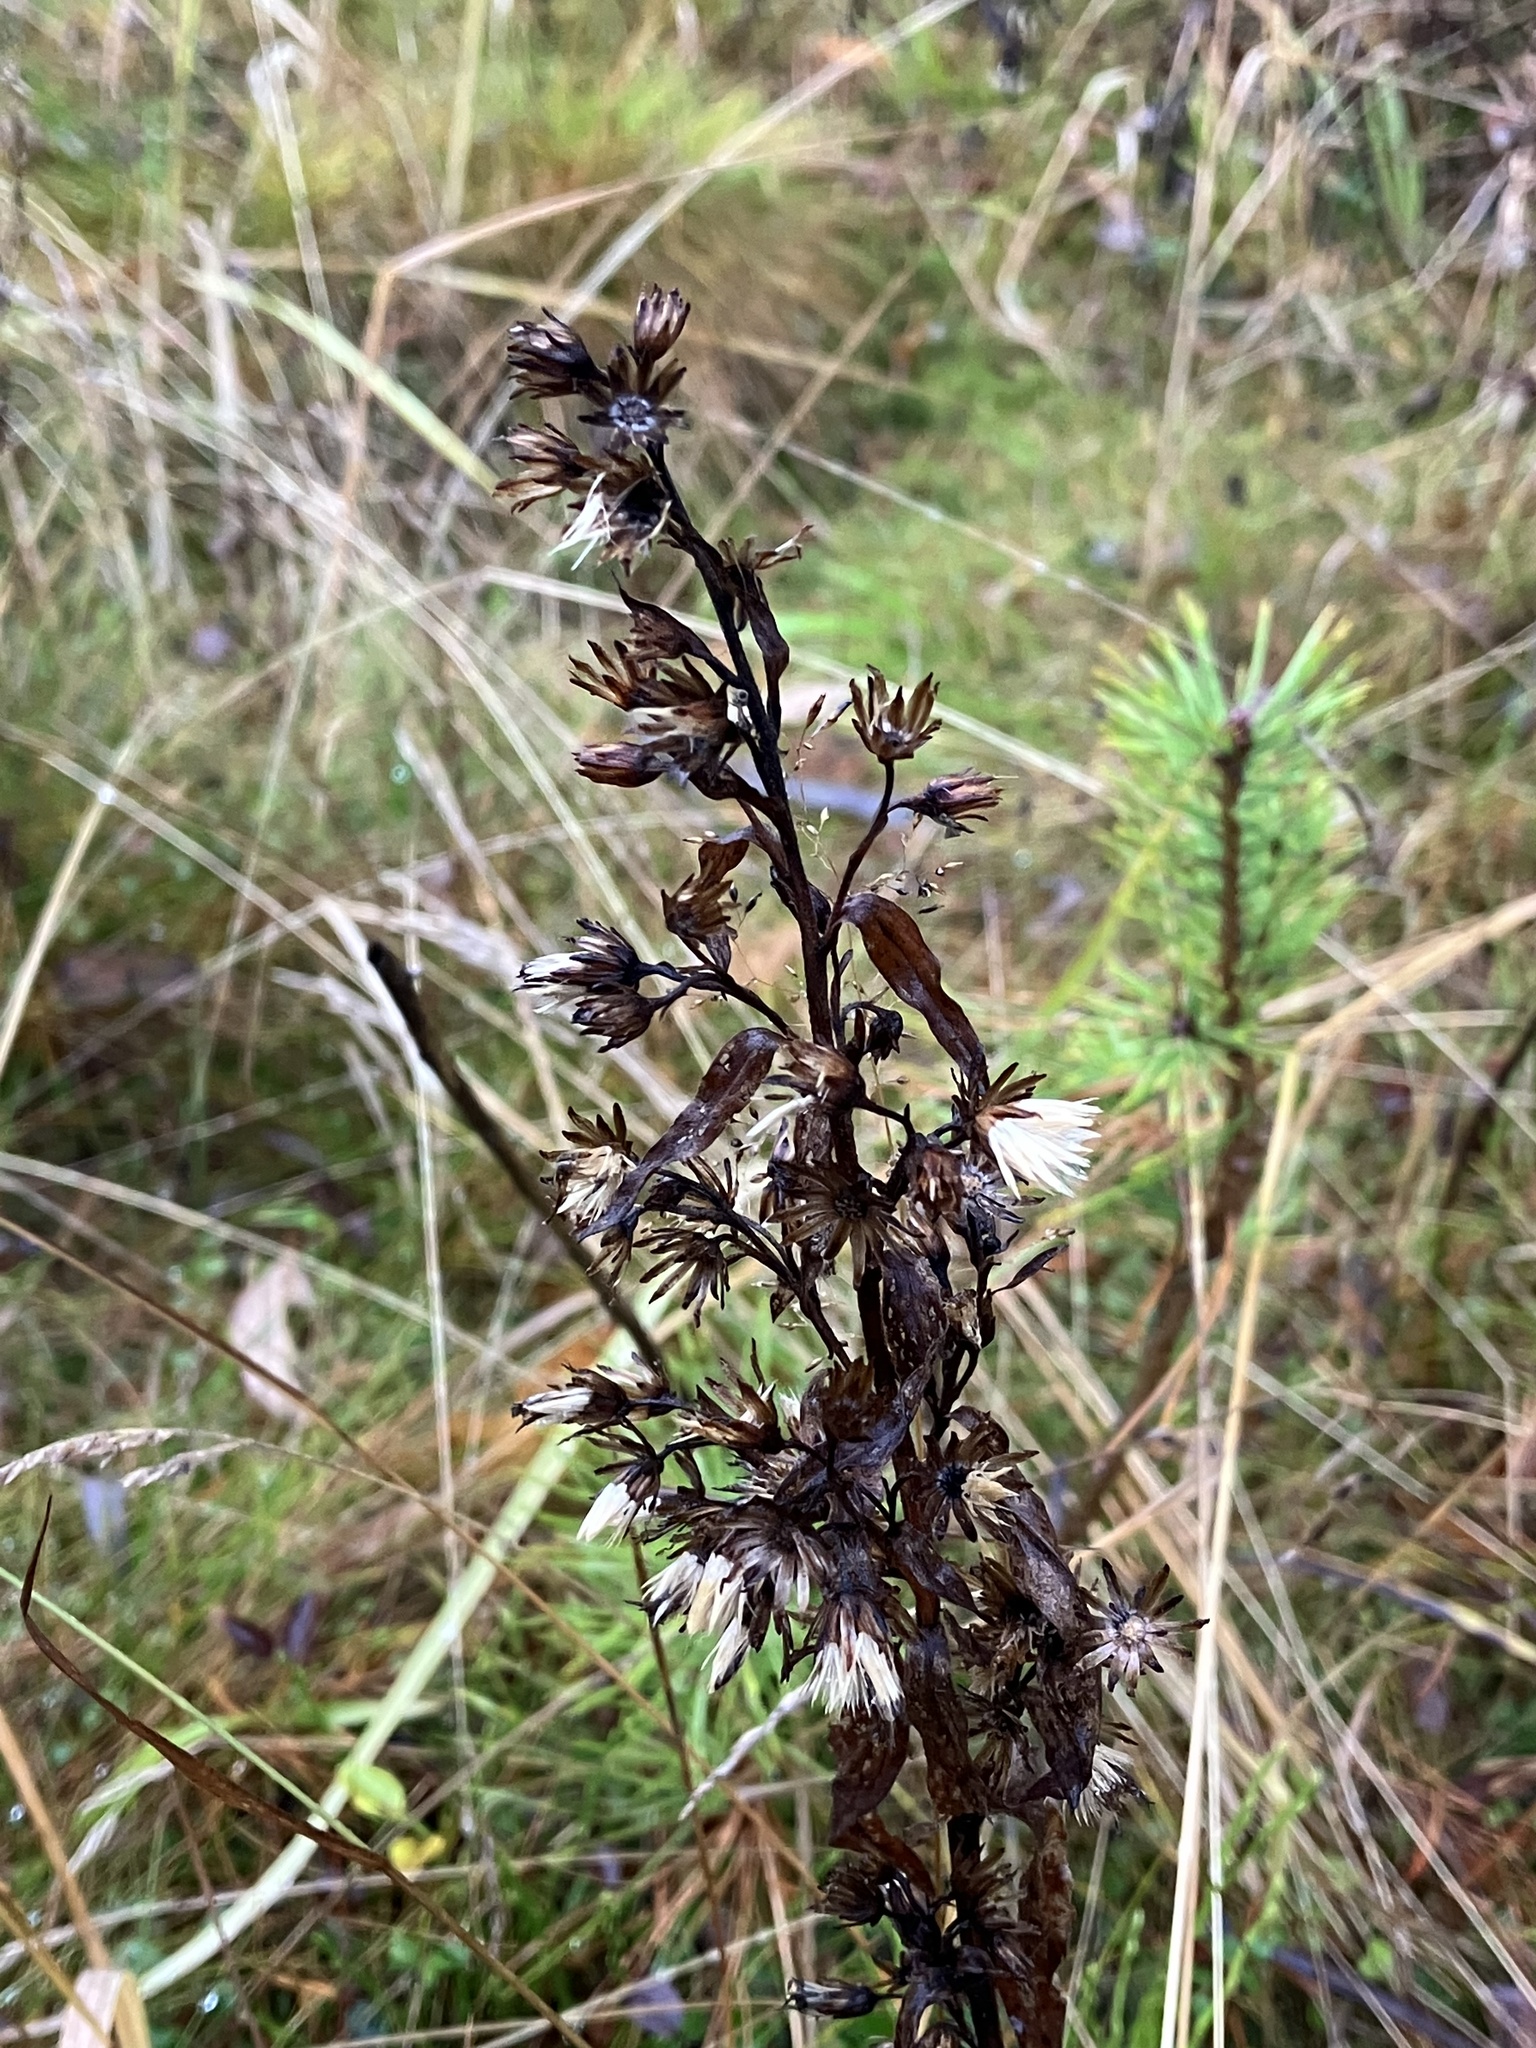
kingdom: Plantae
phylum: Tracheophyta
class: Magnoliopsida
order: Asterales
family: Asteraceae
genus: Solidago
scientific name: Solidago virgaurea
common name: Goldenrod
